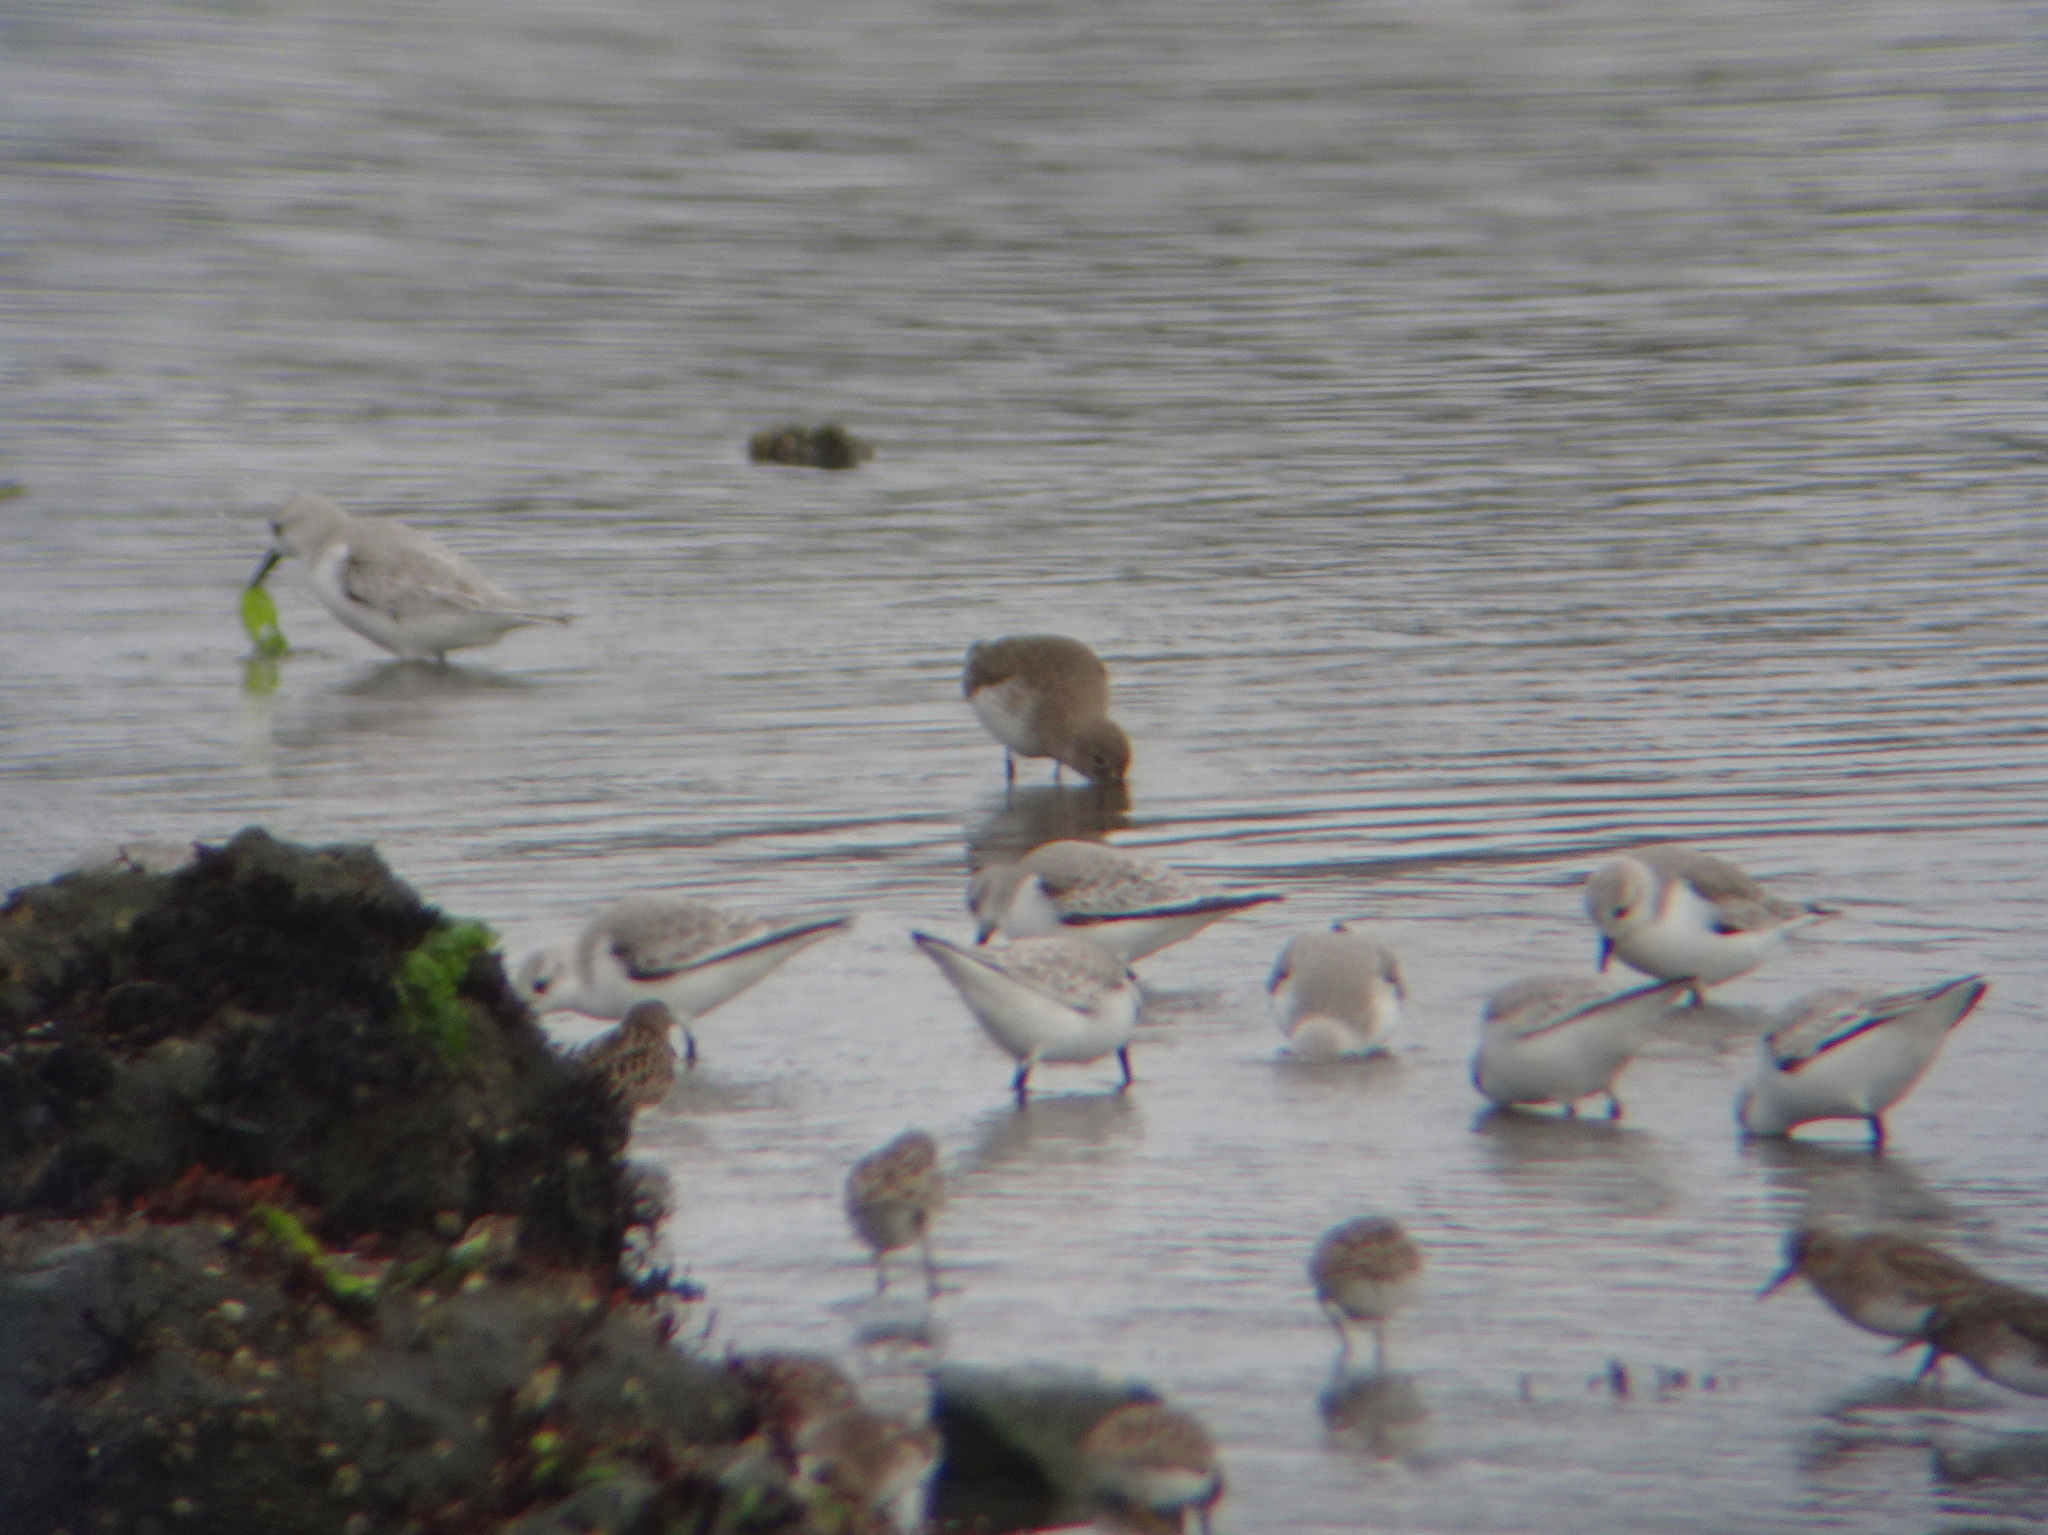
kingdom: Animalia
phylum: Chordata
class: Aves
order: Charadriiformes
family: Scolopacidae
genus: Calidris
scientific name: Calidris alba
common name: Sanderling
